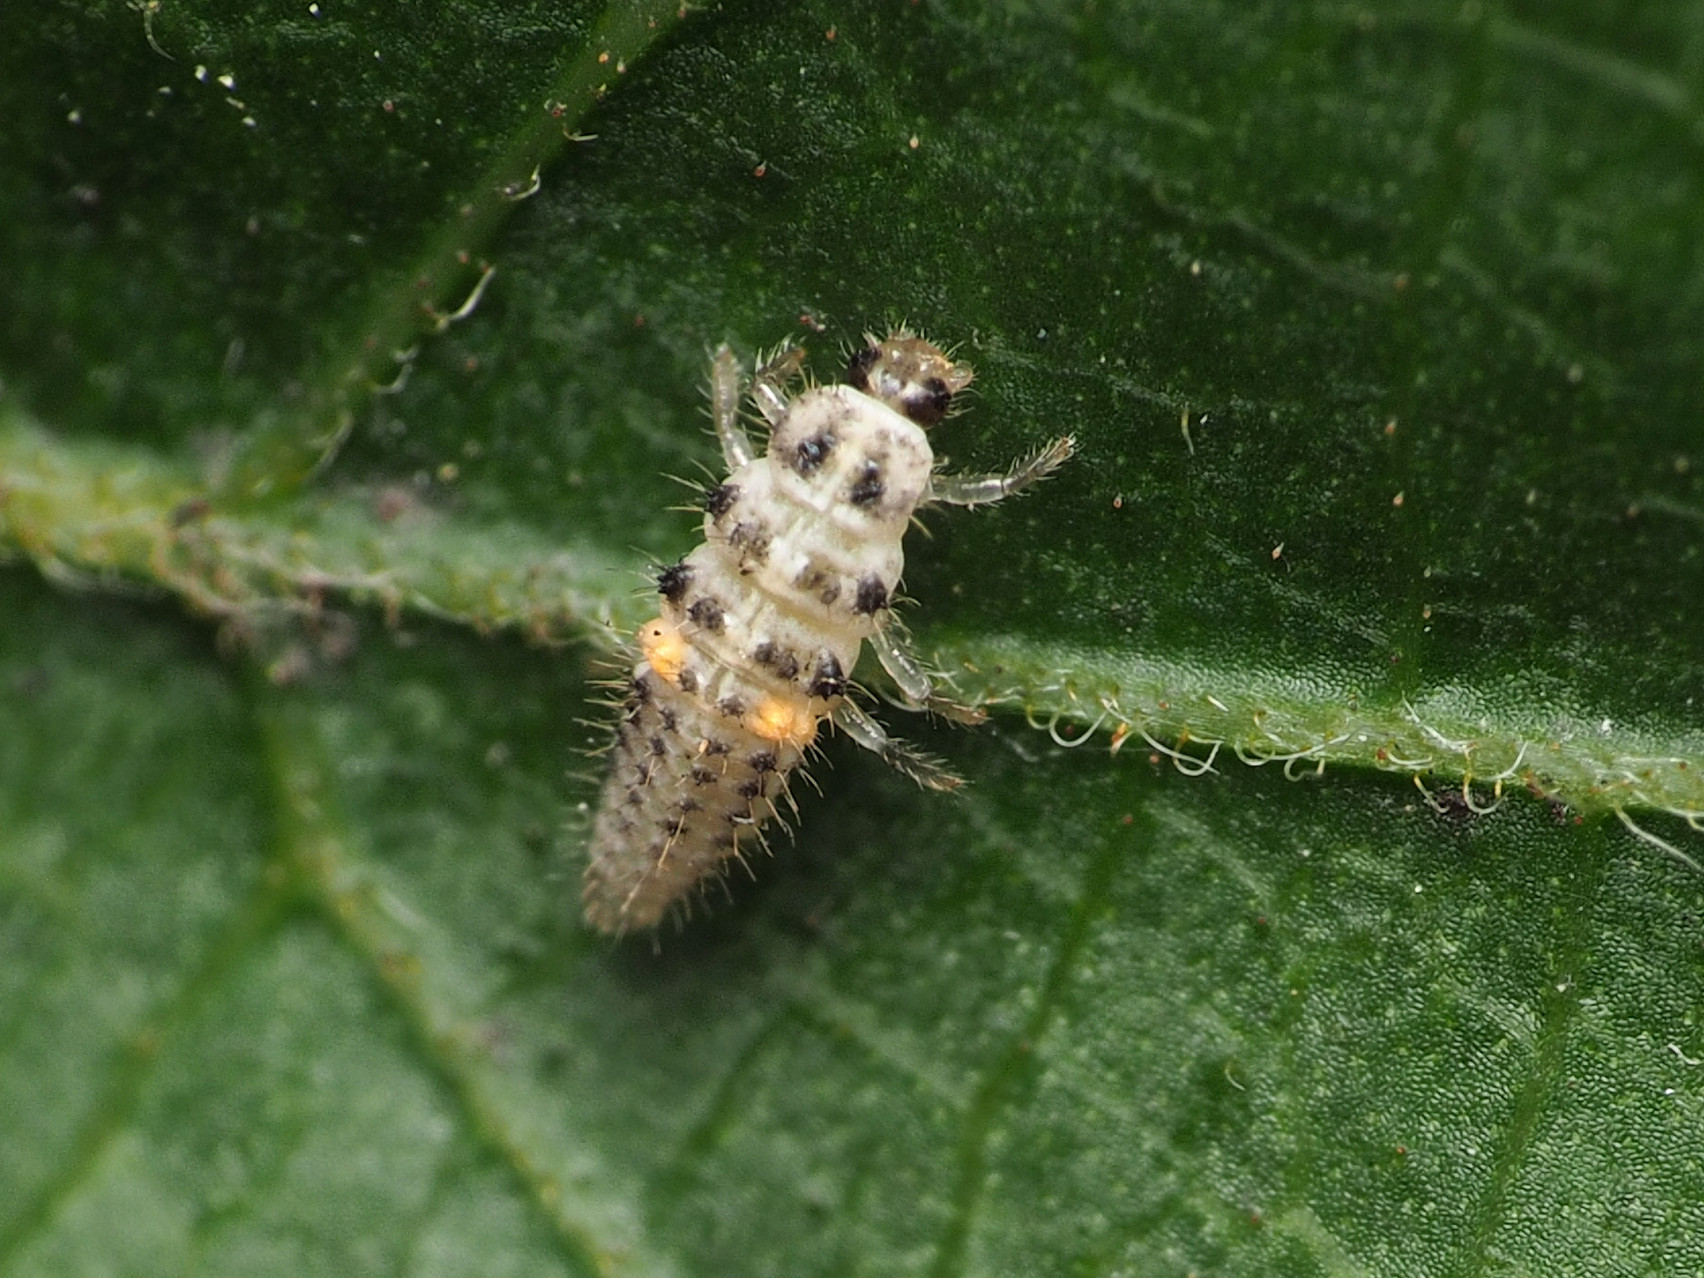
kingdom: Animalia
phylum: Arthropoda
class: Insecta
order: Coleoptera
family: Coccinellidae
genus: Psyllobora
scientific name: Psyllobora vigintimaculata
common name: Ladybird beetle
